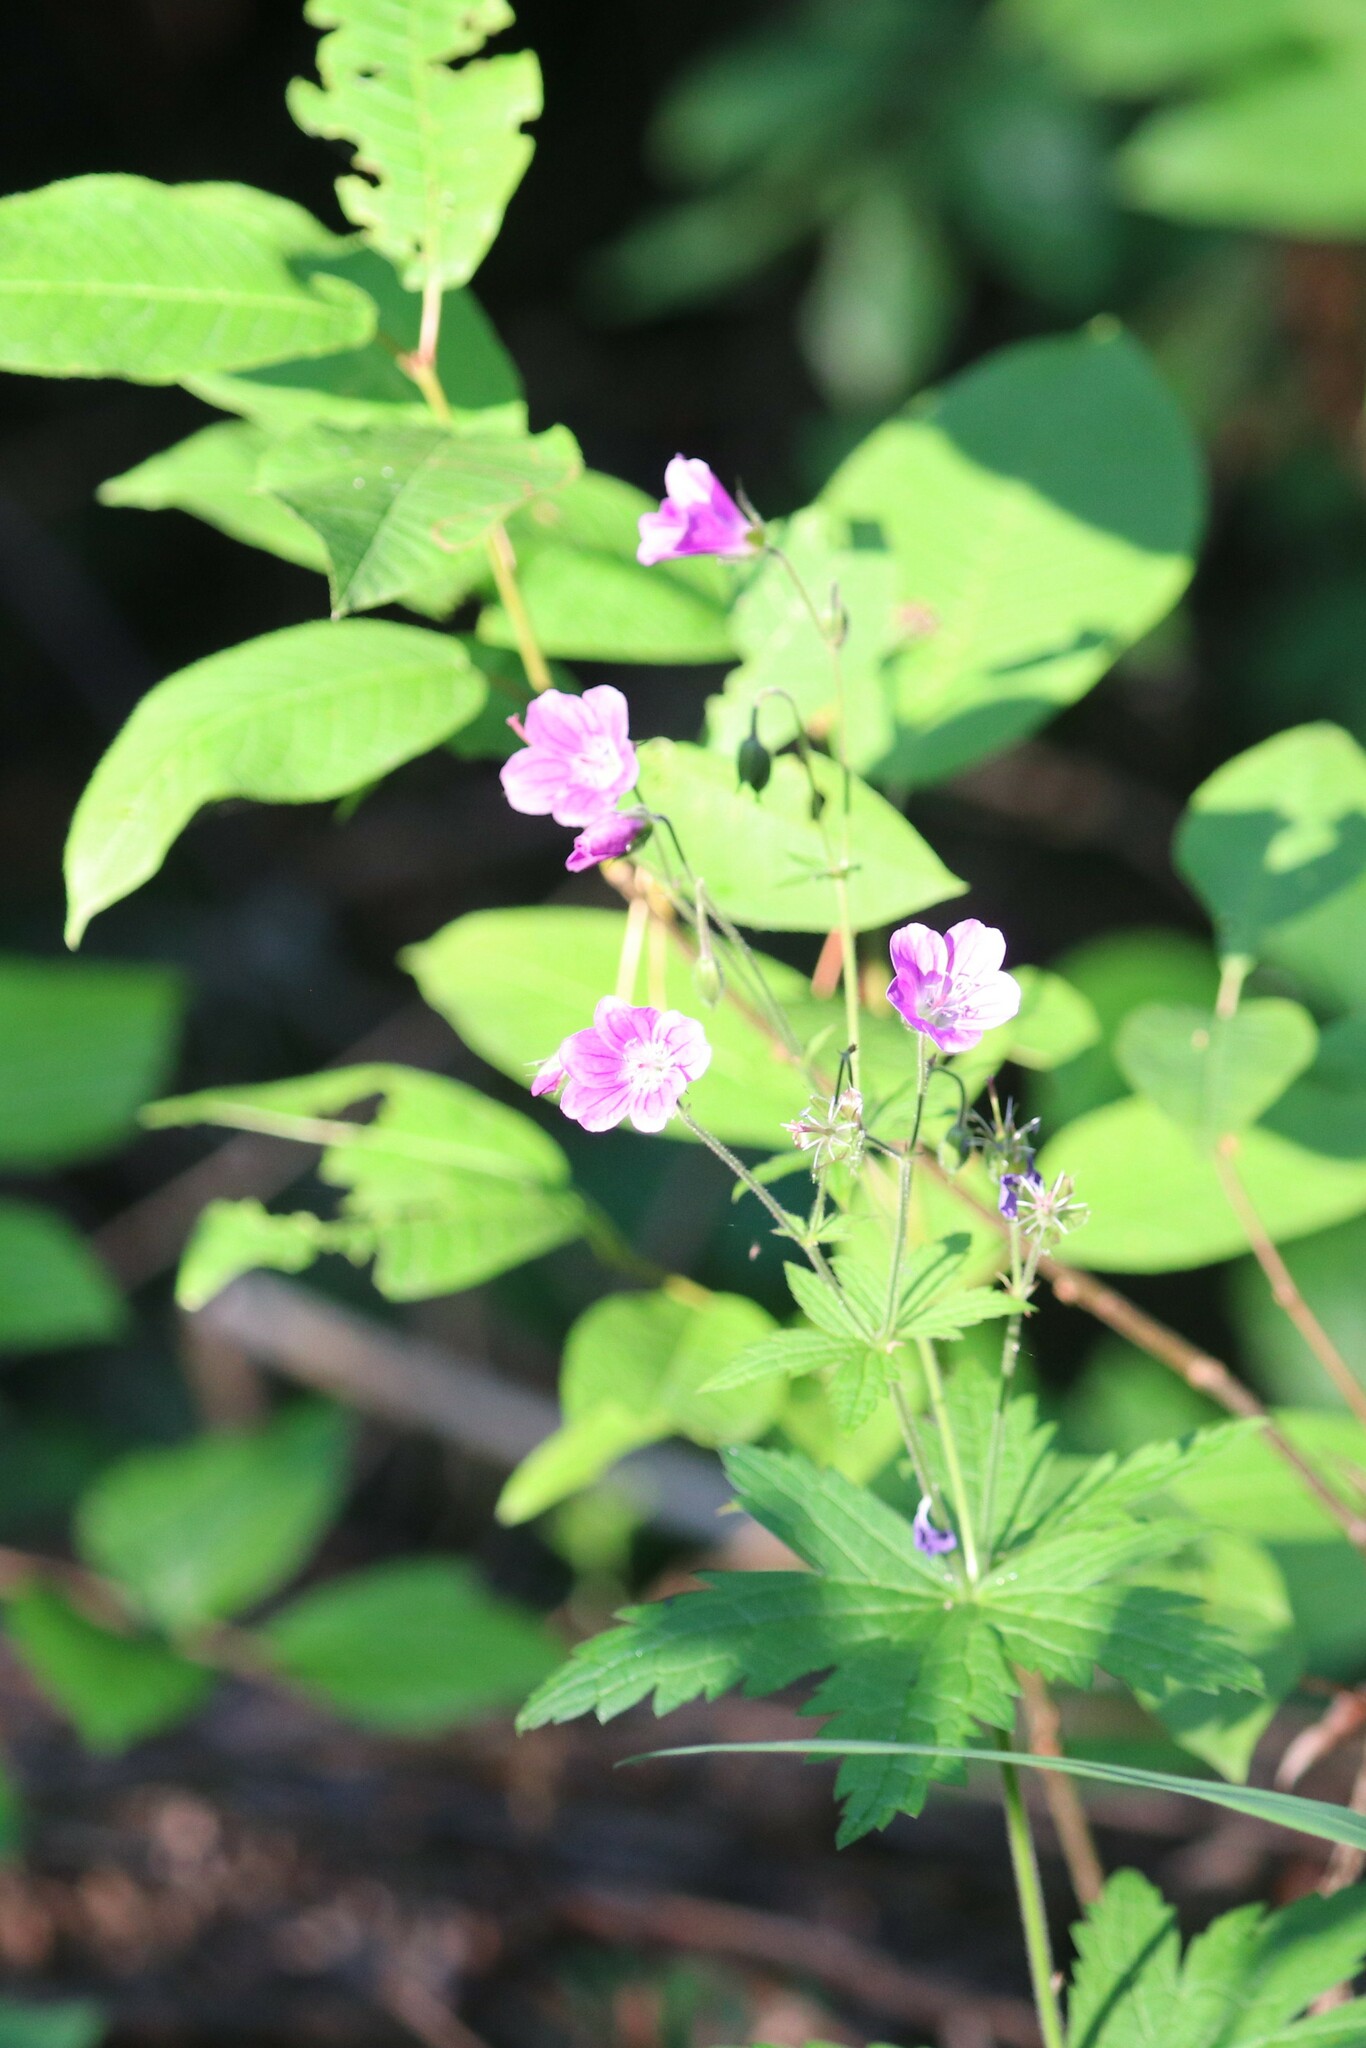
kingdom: Plantae
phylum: Tracheophyta
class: Magnoliopsida
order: Geraniales
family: Geraniaceae
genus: Geranium
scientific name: Geranium sylvaticum
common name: Wood crane's-bill
